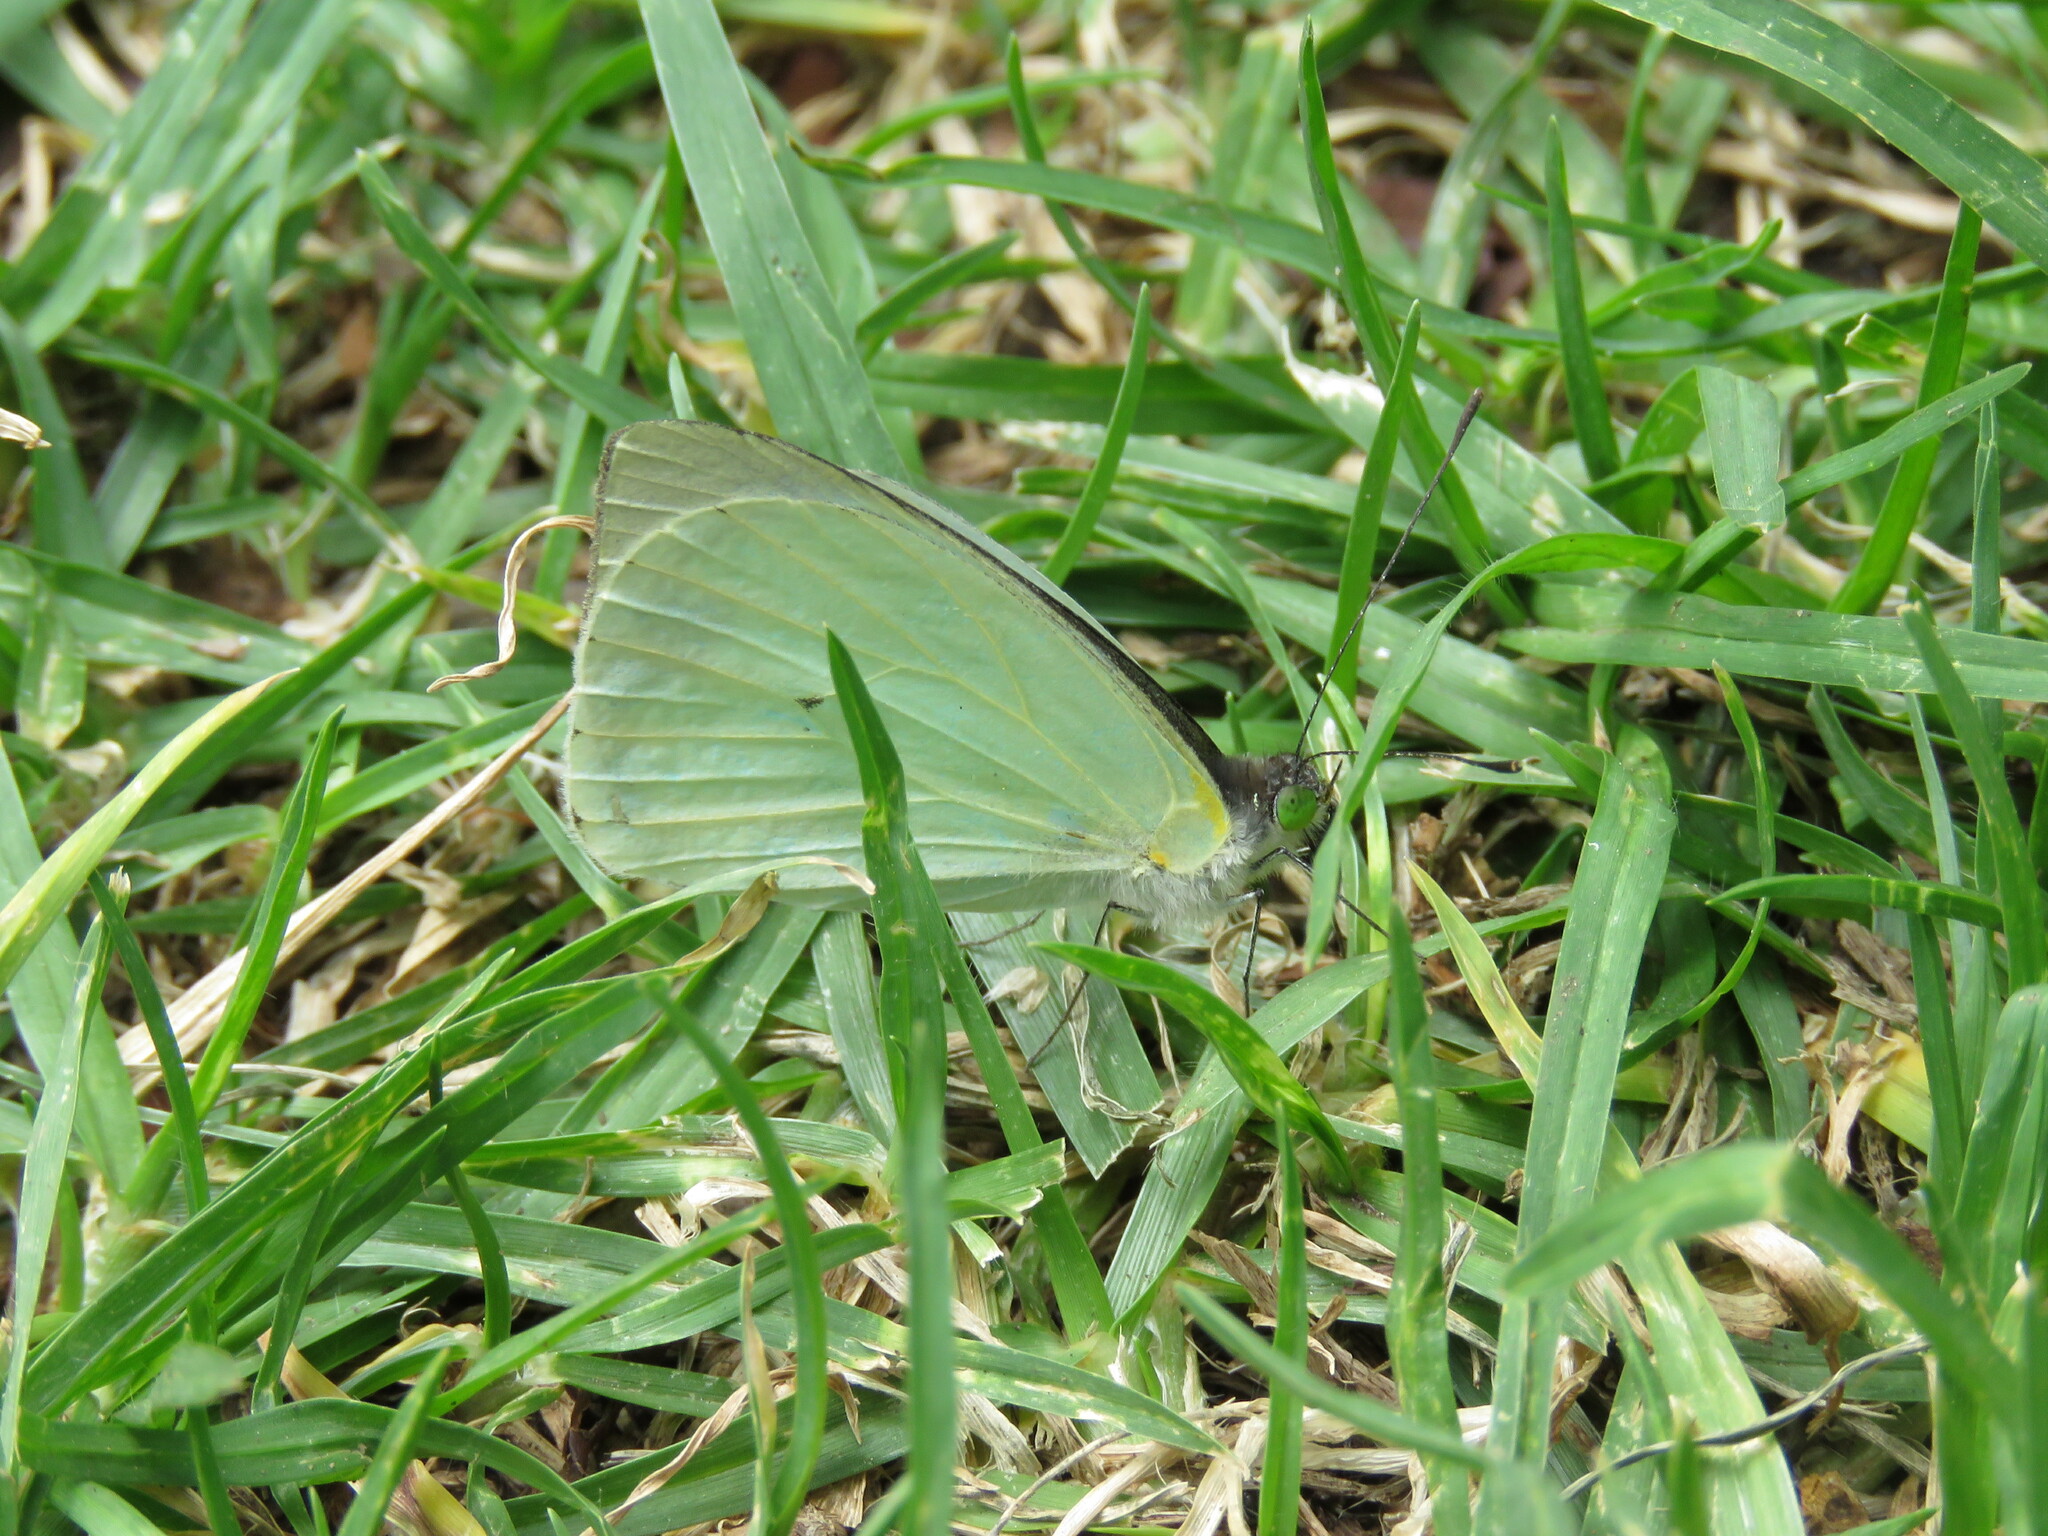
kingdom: Animalia
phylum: Arthropoda
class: Insecta
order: Lepidoptera
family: Pieridae
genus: Leptophobia
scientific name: Leptophobia aripa
